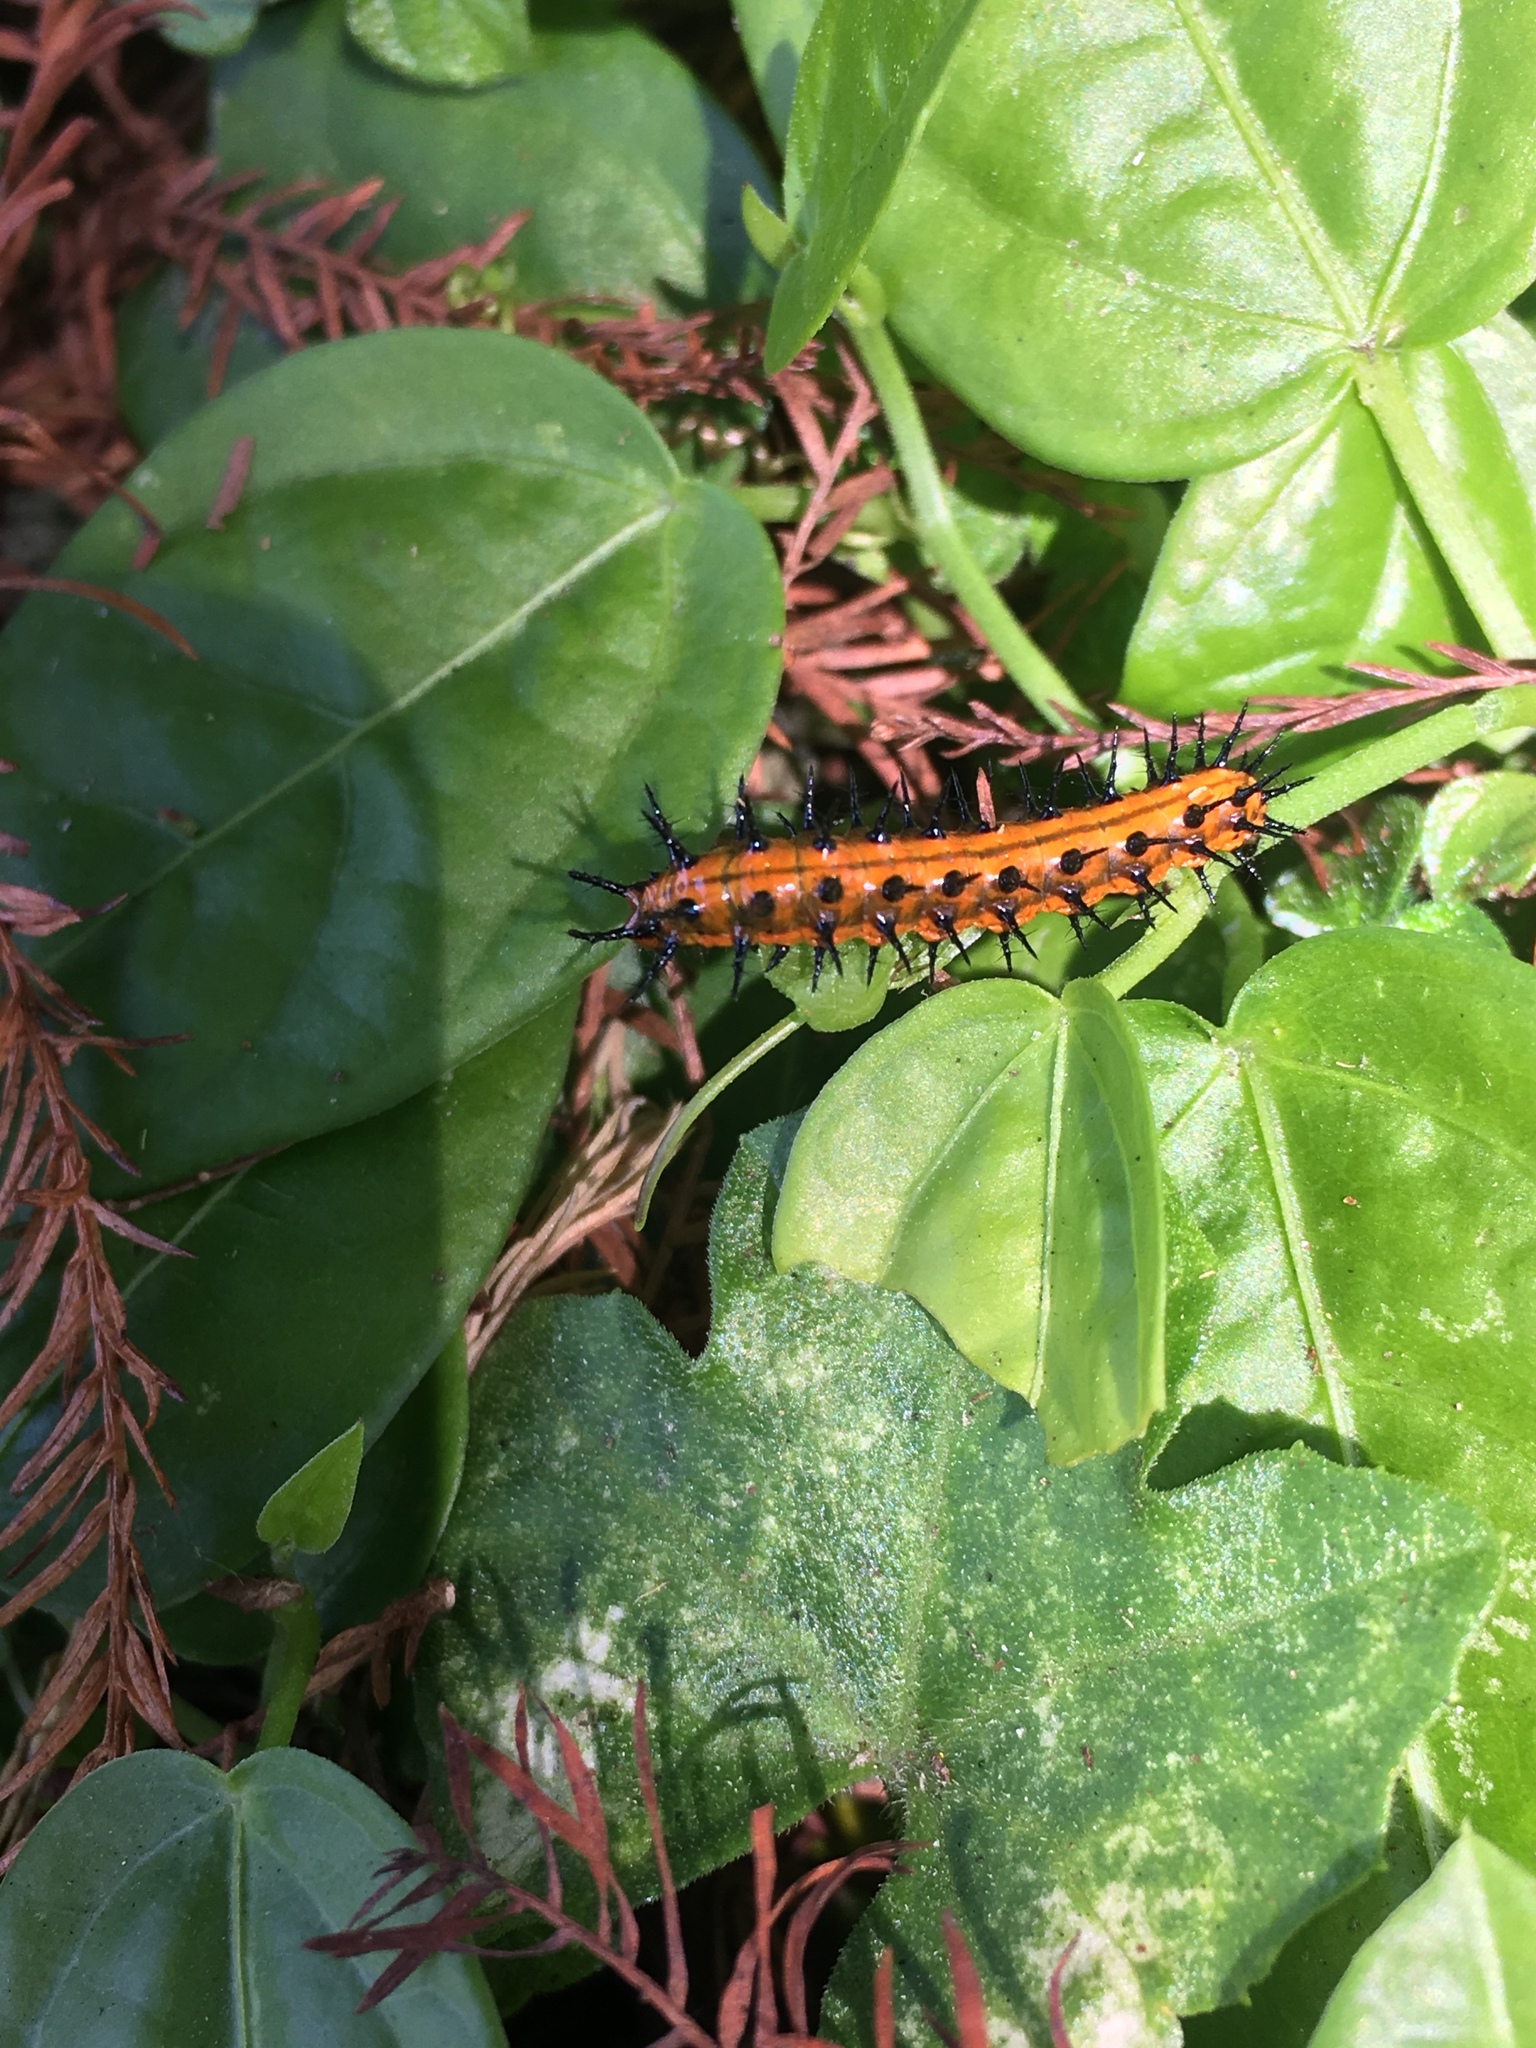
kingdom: Animalia
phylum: Arthropoda
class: Insecta
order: Lepidoptera
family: Nymphalidae
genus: Dione
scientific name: Dione vanillae
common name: Gulf fritillary
